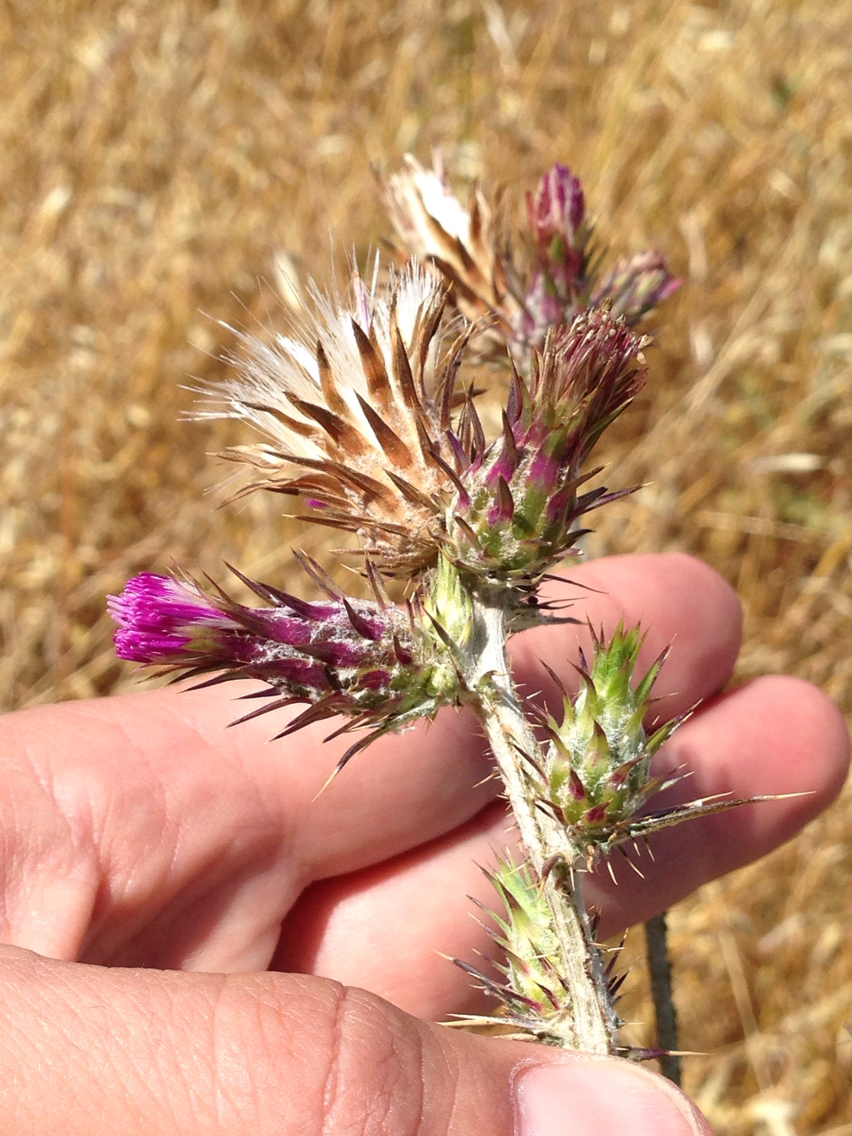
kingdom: Plantae
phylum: Tracheophyta
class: Magnoliopsida
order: Asterales
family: Asteraceae
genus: Carduus
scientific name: Carduus pycnocephalus
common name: Plymouth thistle
